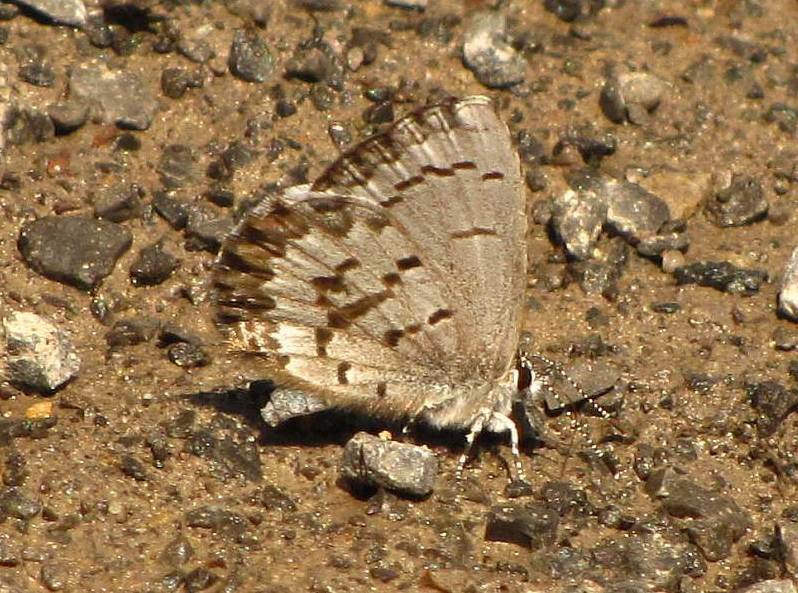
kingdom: Animalia
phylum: Arthropoda
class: Insecta
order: Lepidoptera
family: Lycaenidae
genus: Celastrina
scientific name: Celastrina lucia
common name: Lucia azure
